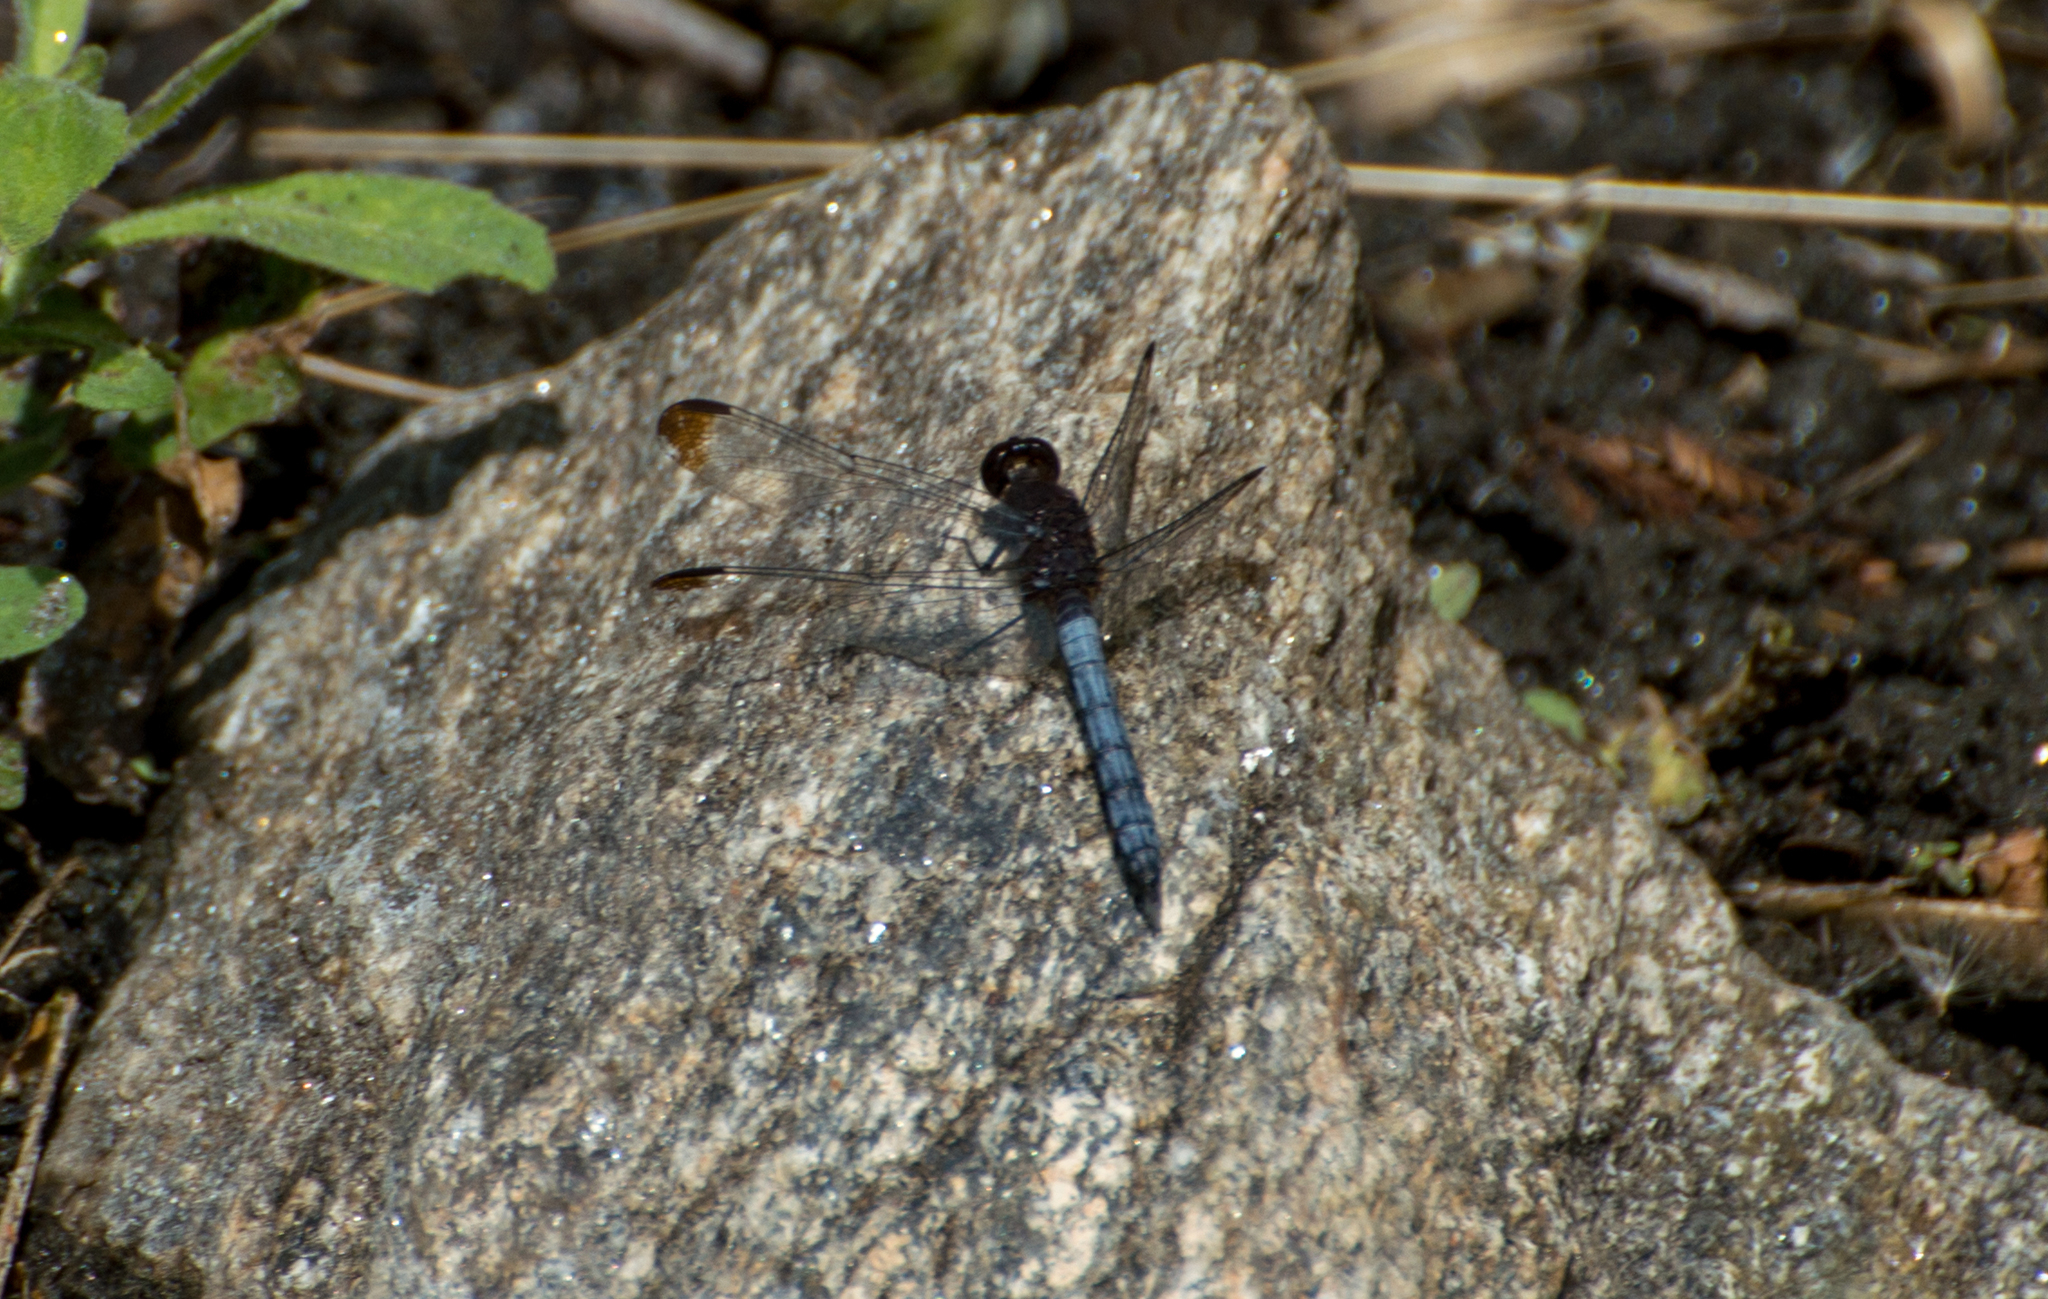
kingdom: Animalia
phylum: Arthropoda
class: Insecta
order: Odonata
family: Libellulidae
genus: Erythrodiplax
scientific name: Erythrodiplax atroterminata
